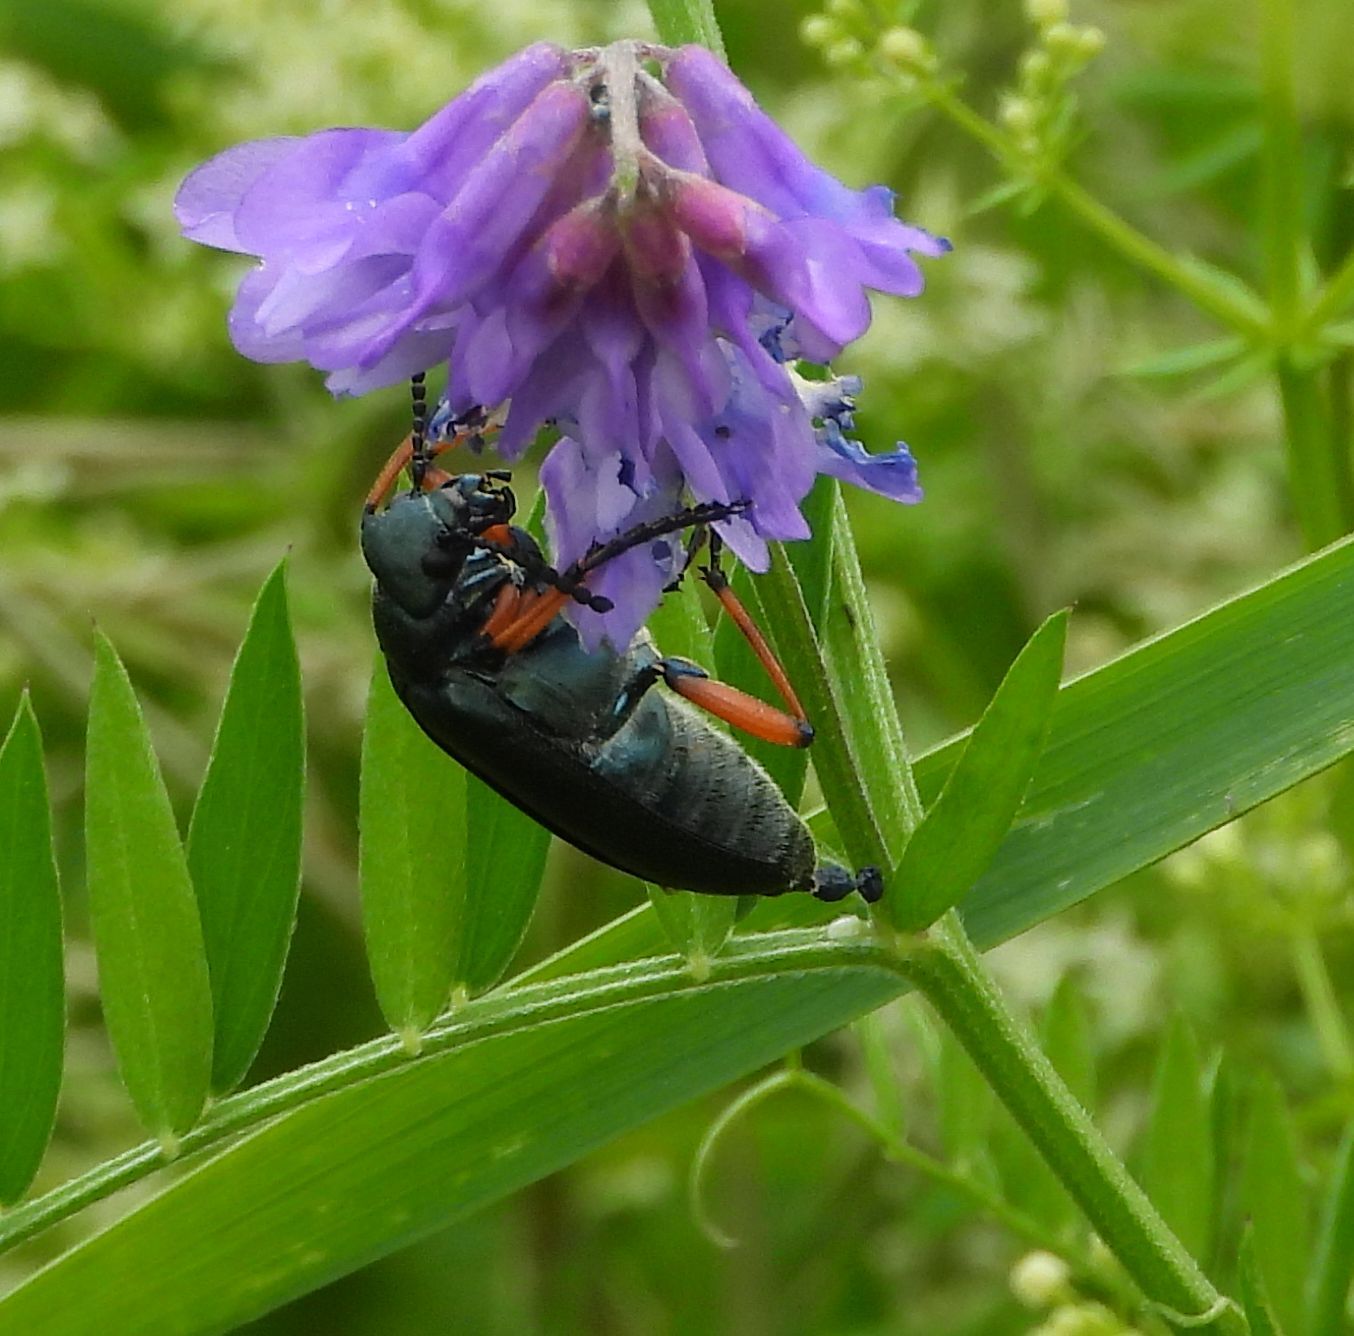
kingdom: Animalia
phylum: Arthropoda
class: Insecta
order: Coleoptera
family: Meloidae
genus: Lytta
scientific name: Lytta sayi
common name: Say's blister beetle
